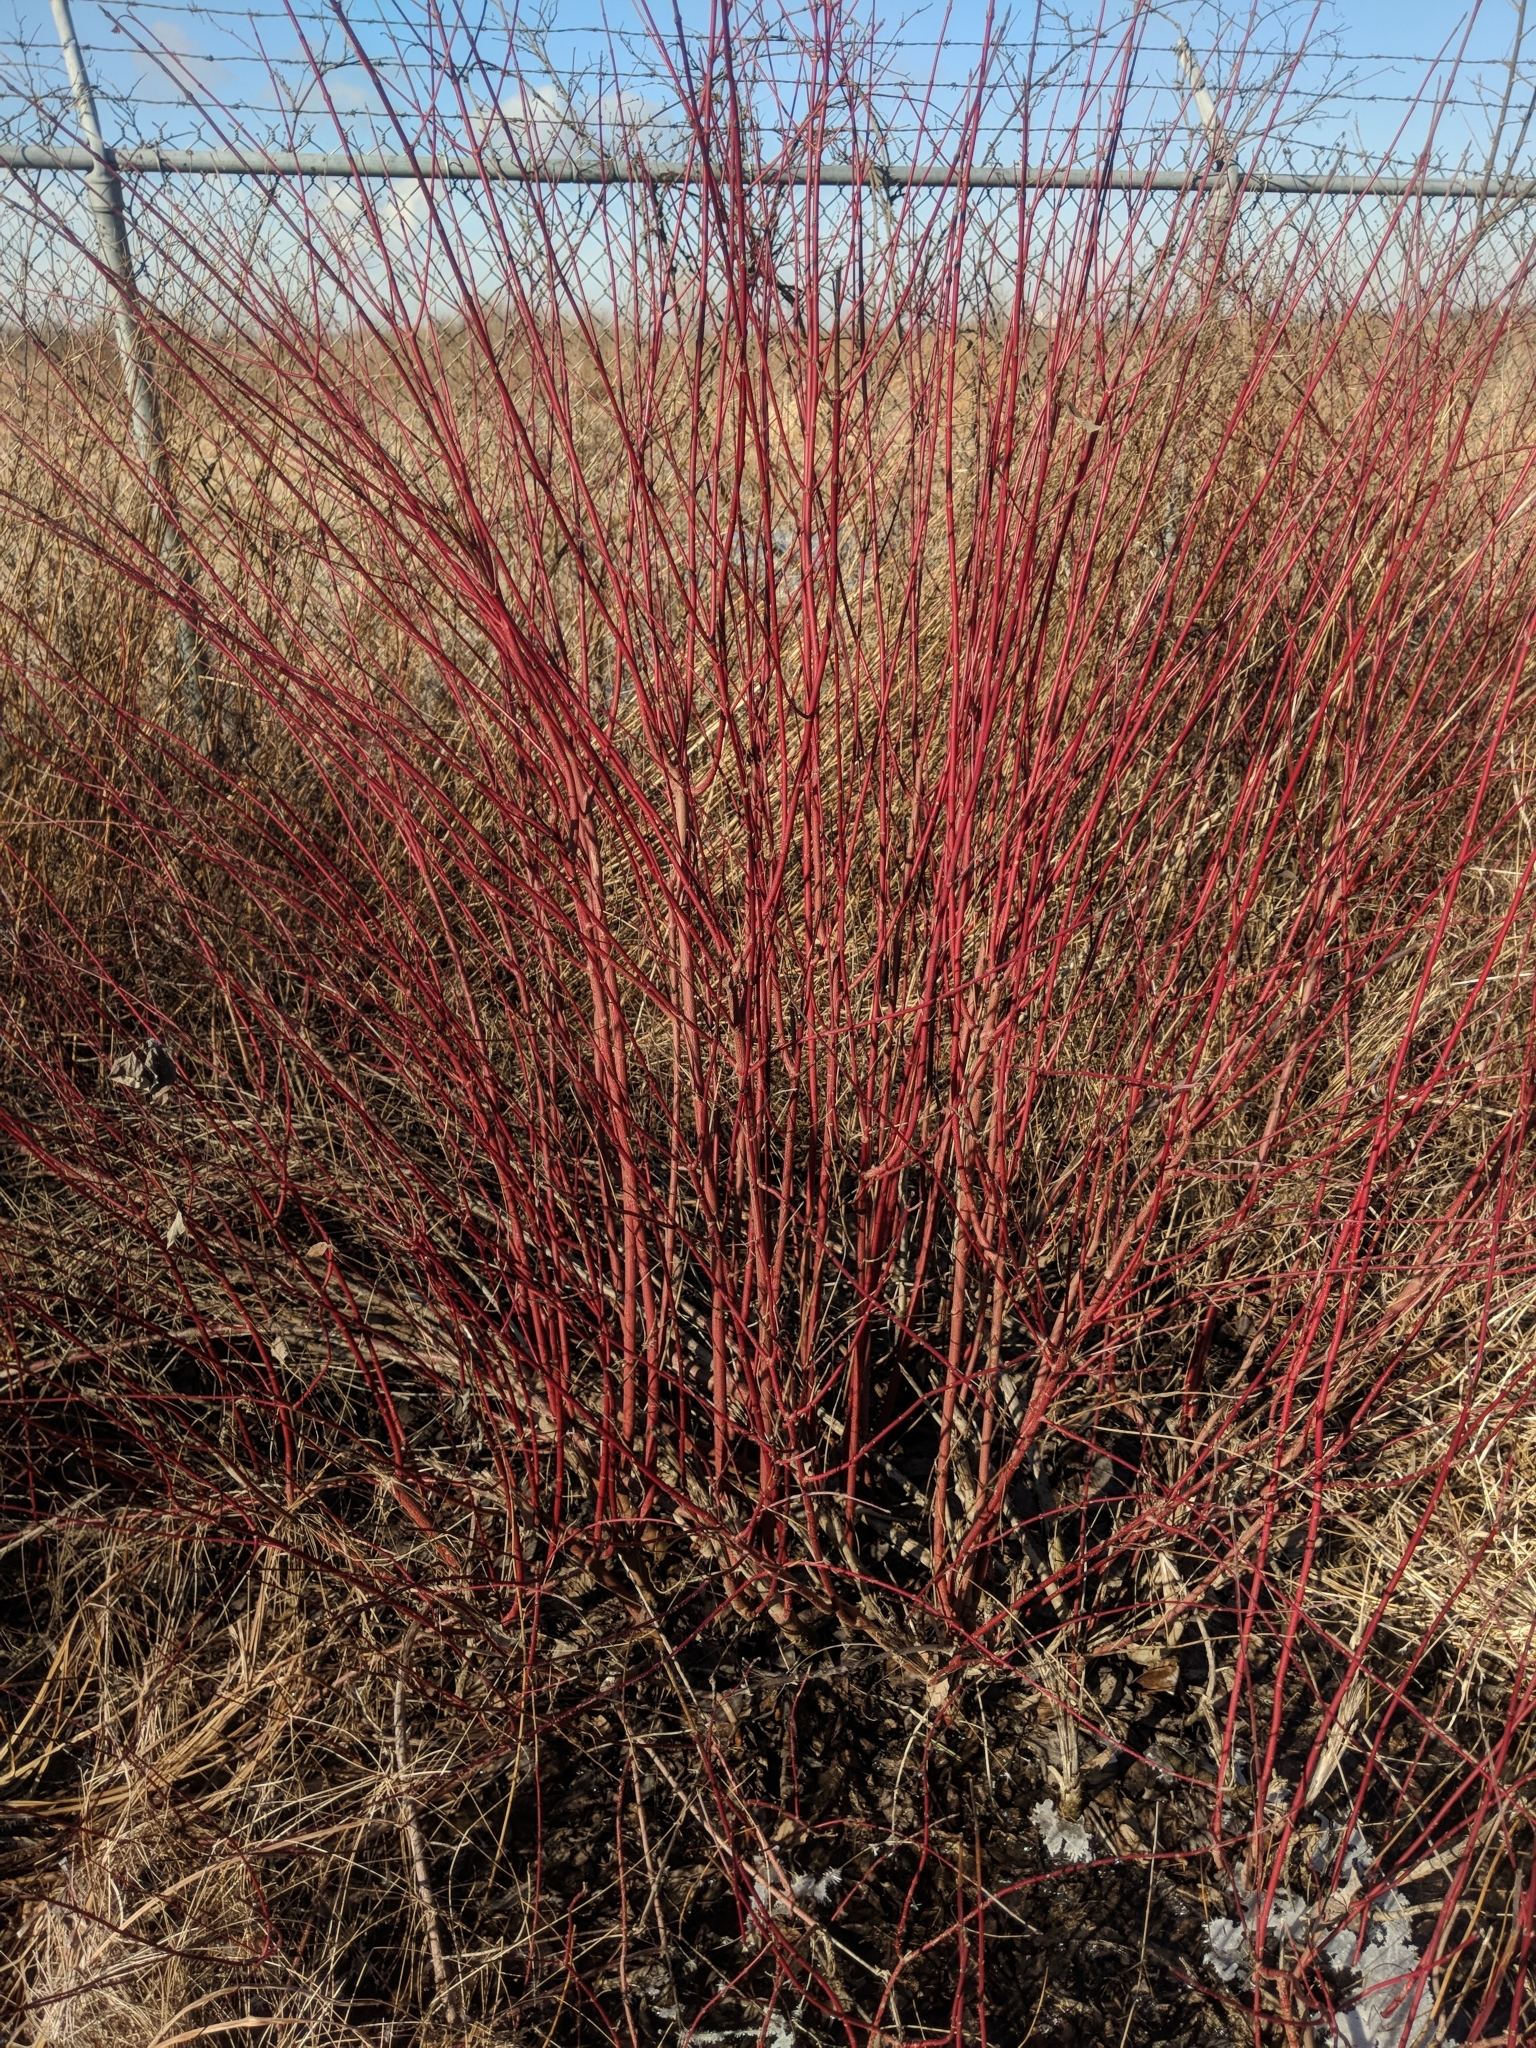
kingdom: Plantae
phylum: Tracheophyta
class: Magnoliopsida
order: Cornales
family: Cornaceae
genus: Cornus
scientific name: Cornus amomum
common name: Silky dogwood
